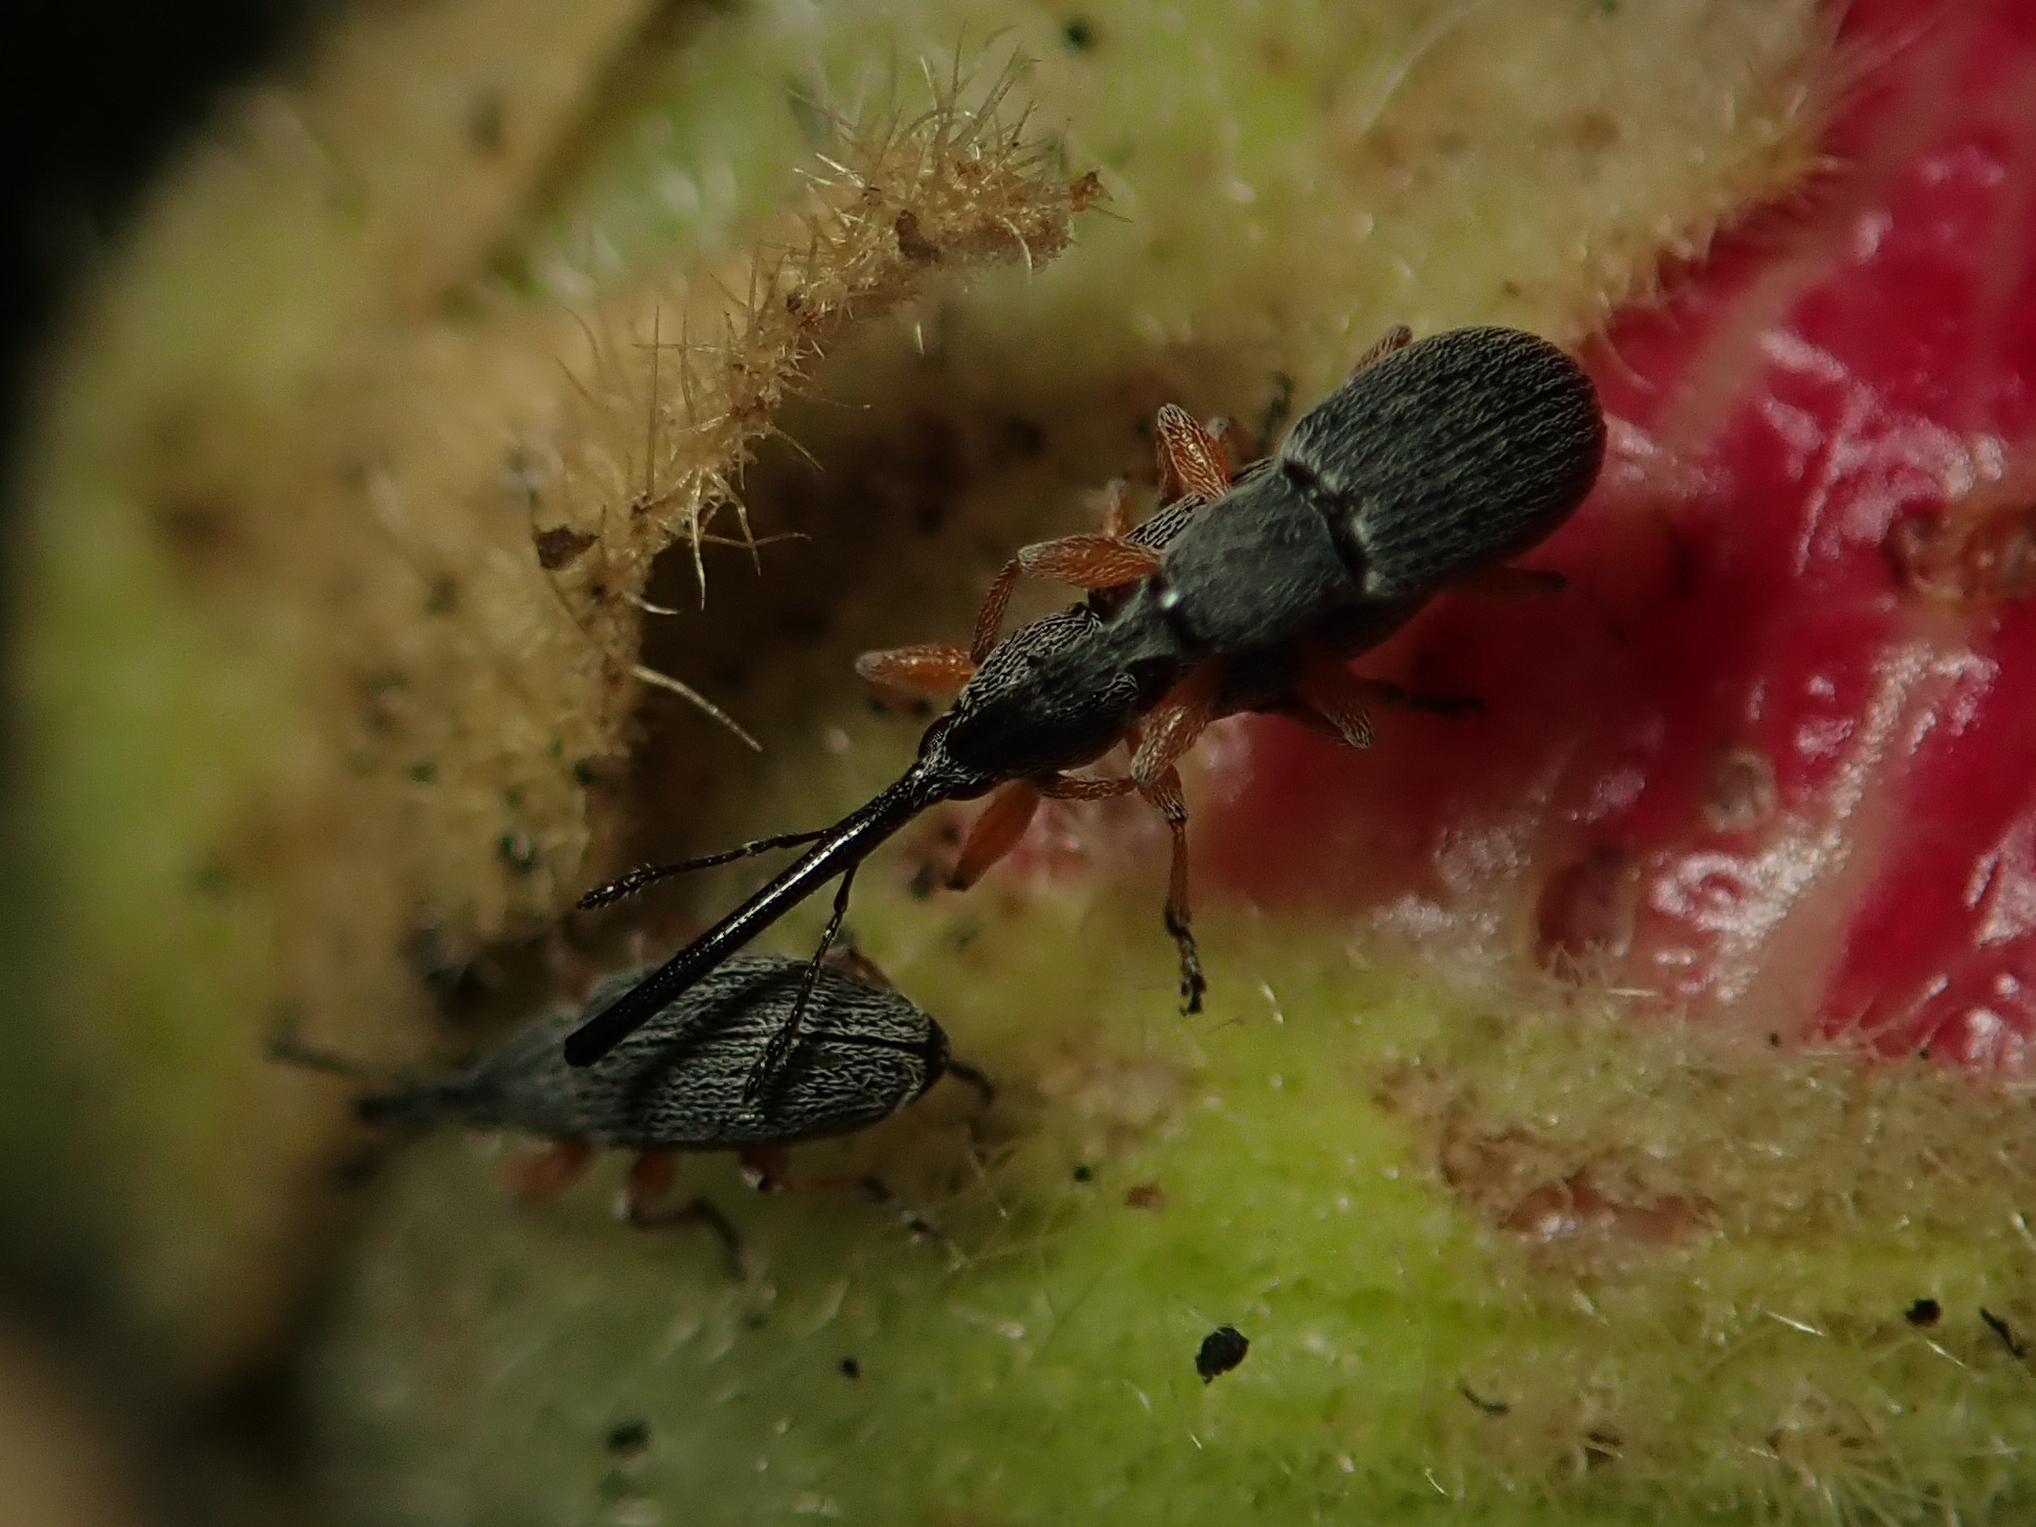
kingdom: Animalia
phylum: Arthropoda
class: Insecta
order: Coleoptera
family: Brentidae
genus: Rhopalapion
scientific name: Rhopalapion longirostre
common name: Hollyhock weevil
